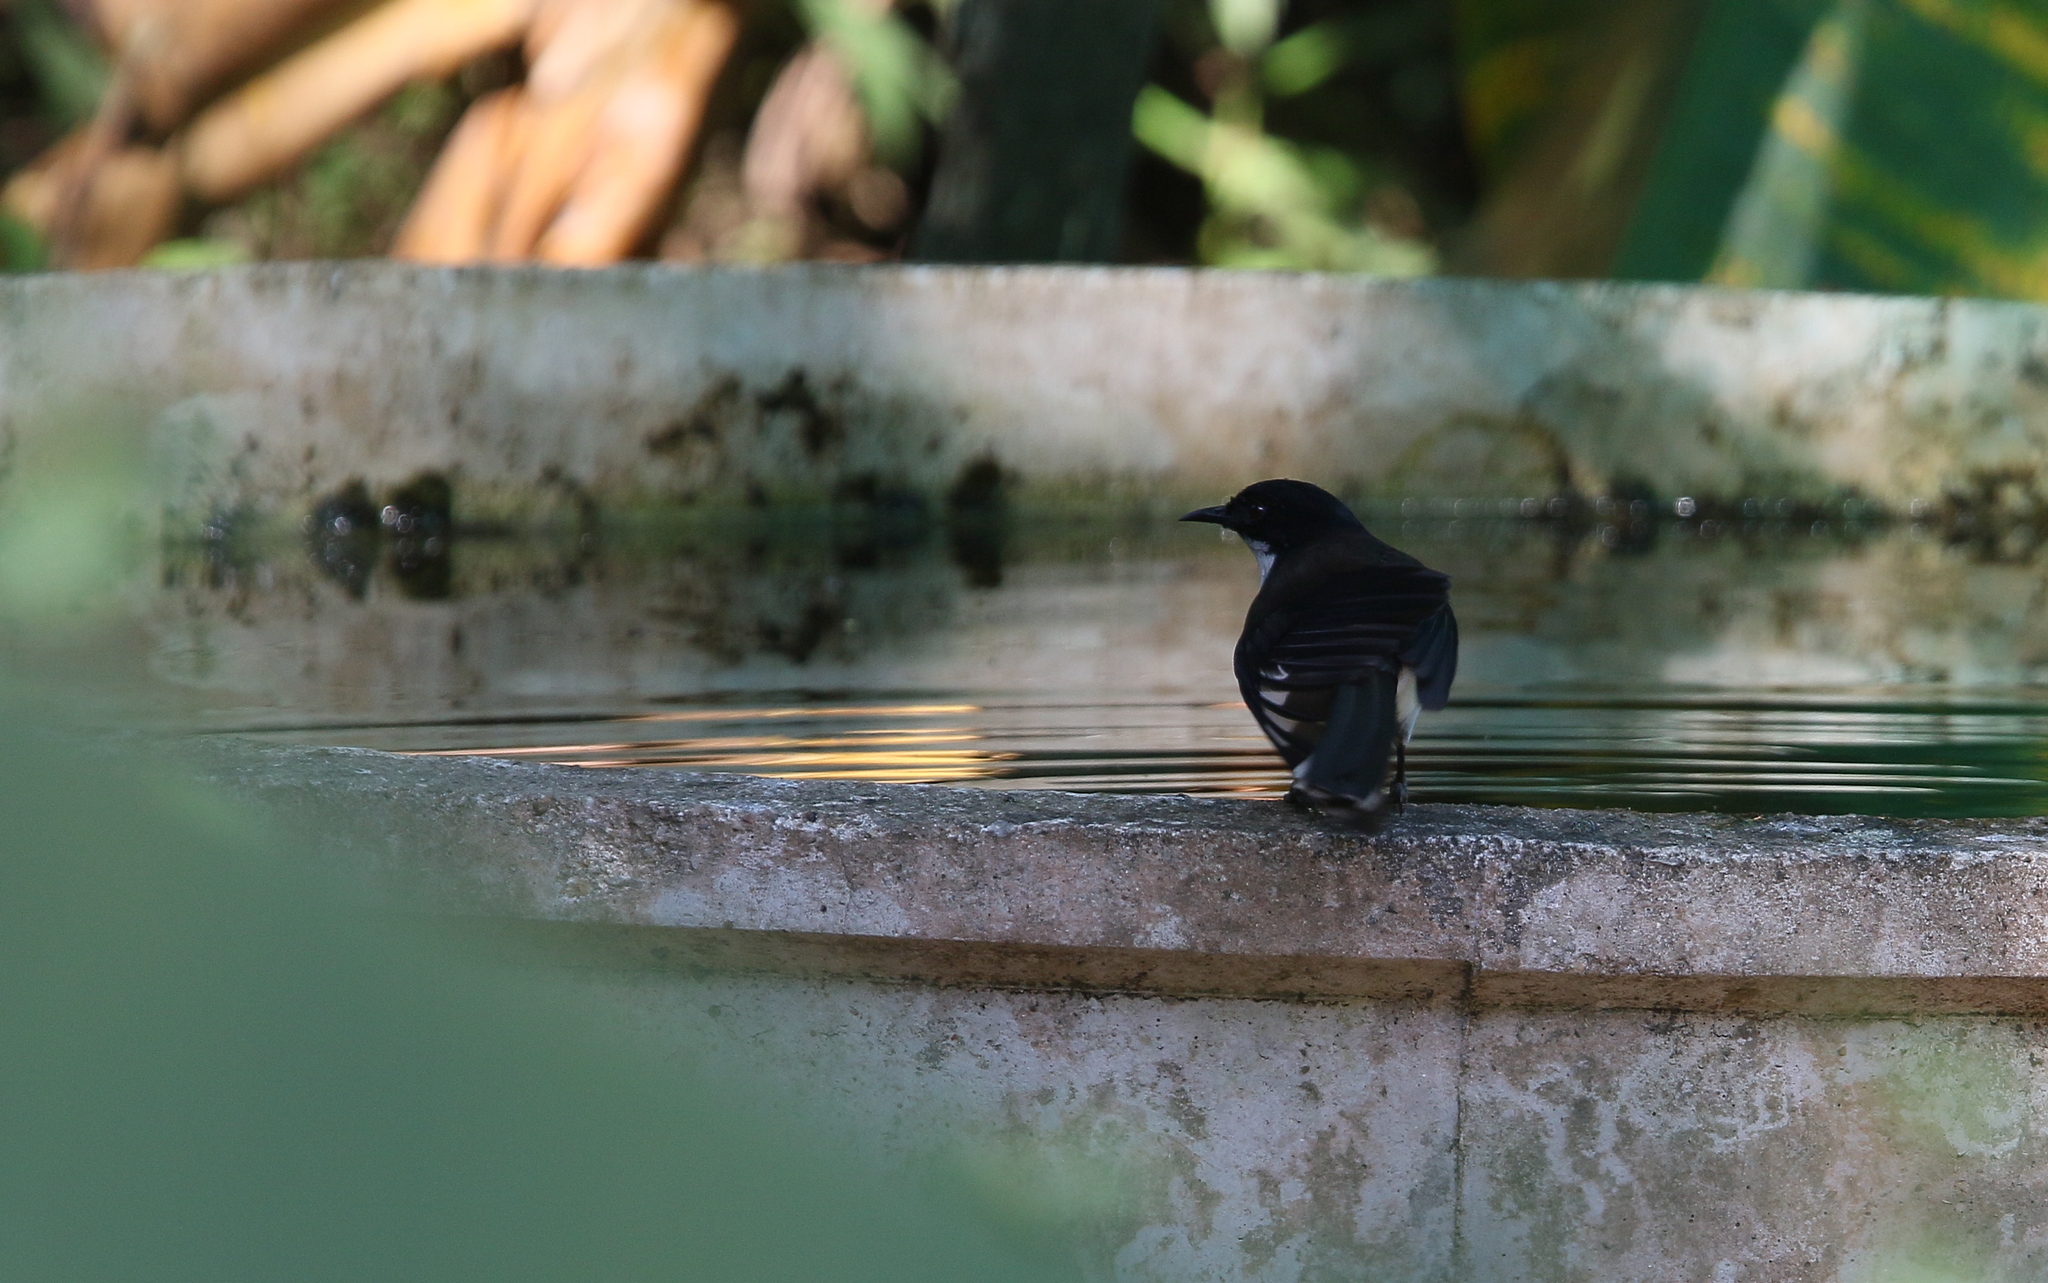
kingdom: Animalia
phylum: Chordata
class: Aves
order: Passeriformes
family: Leiothrichidae
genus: Heterophasia
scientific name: Heterophasia melanoleuca
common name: Dark-backed sibia
